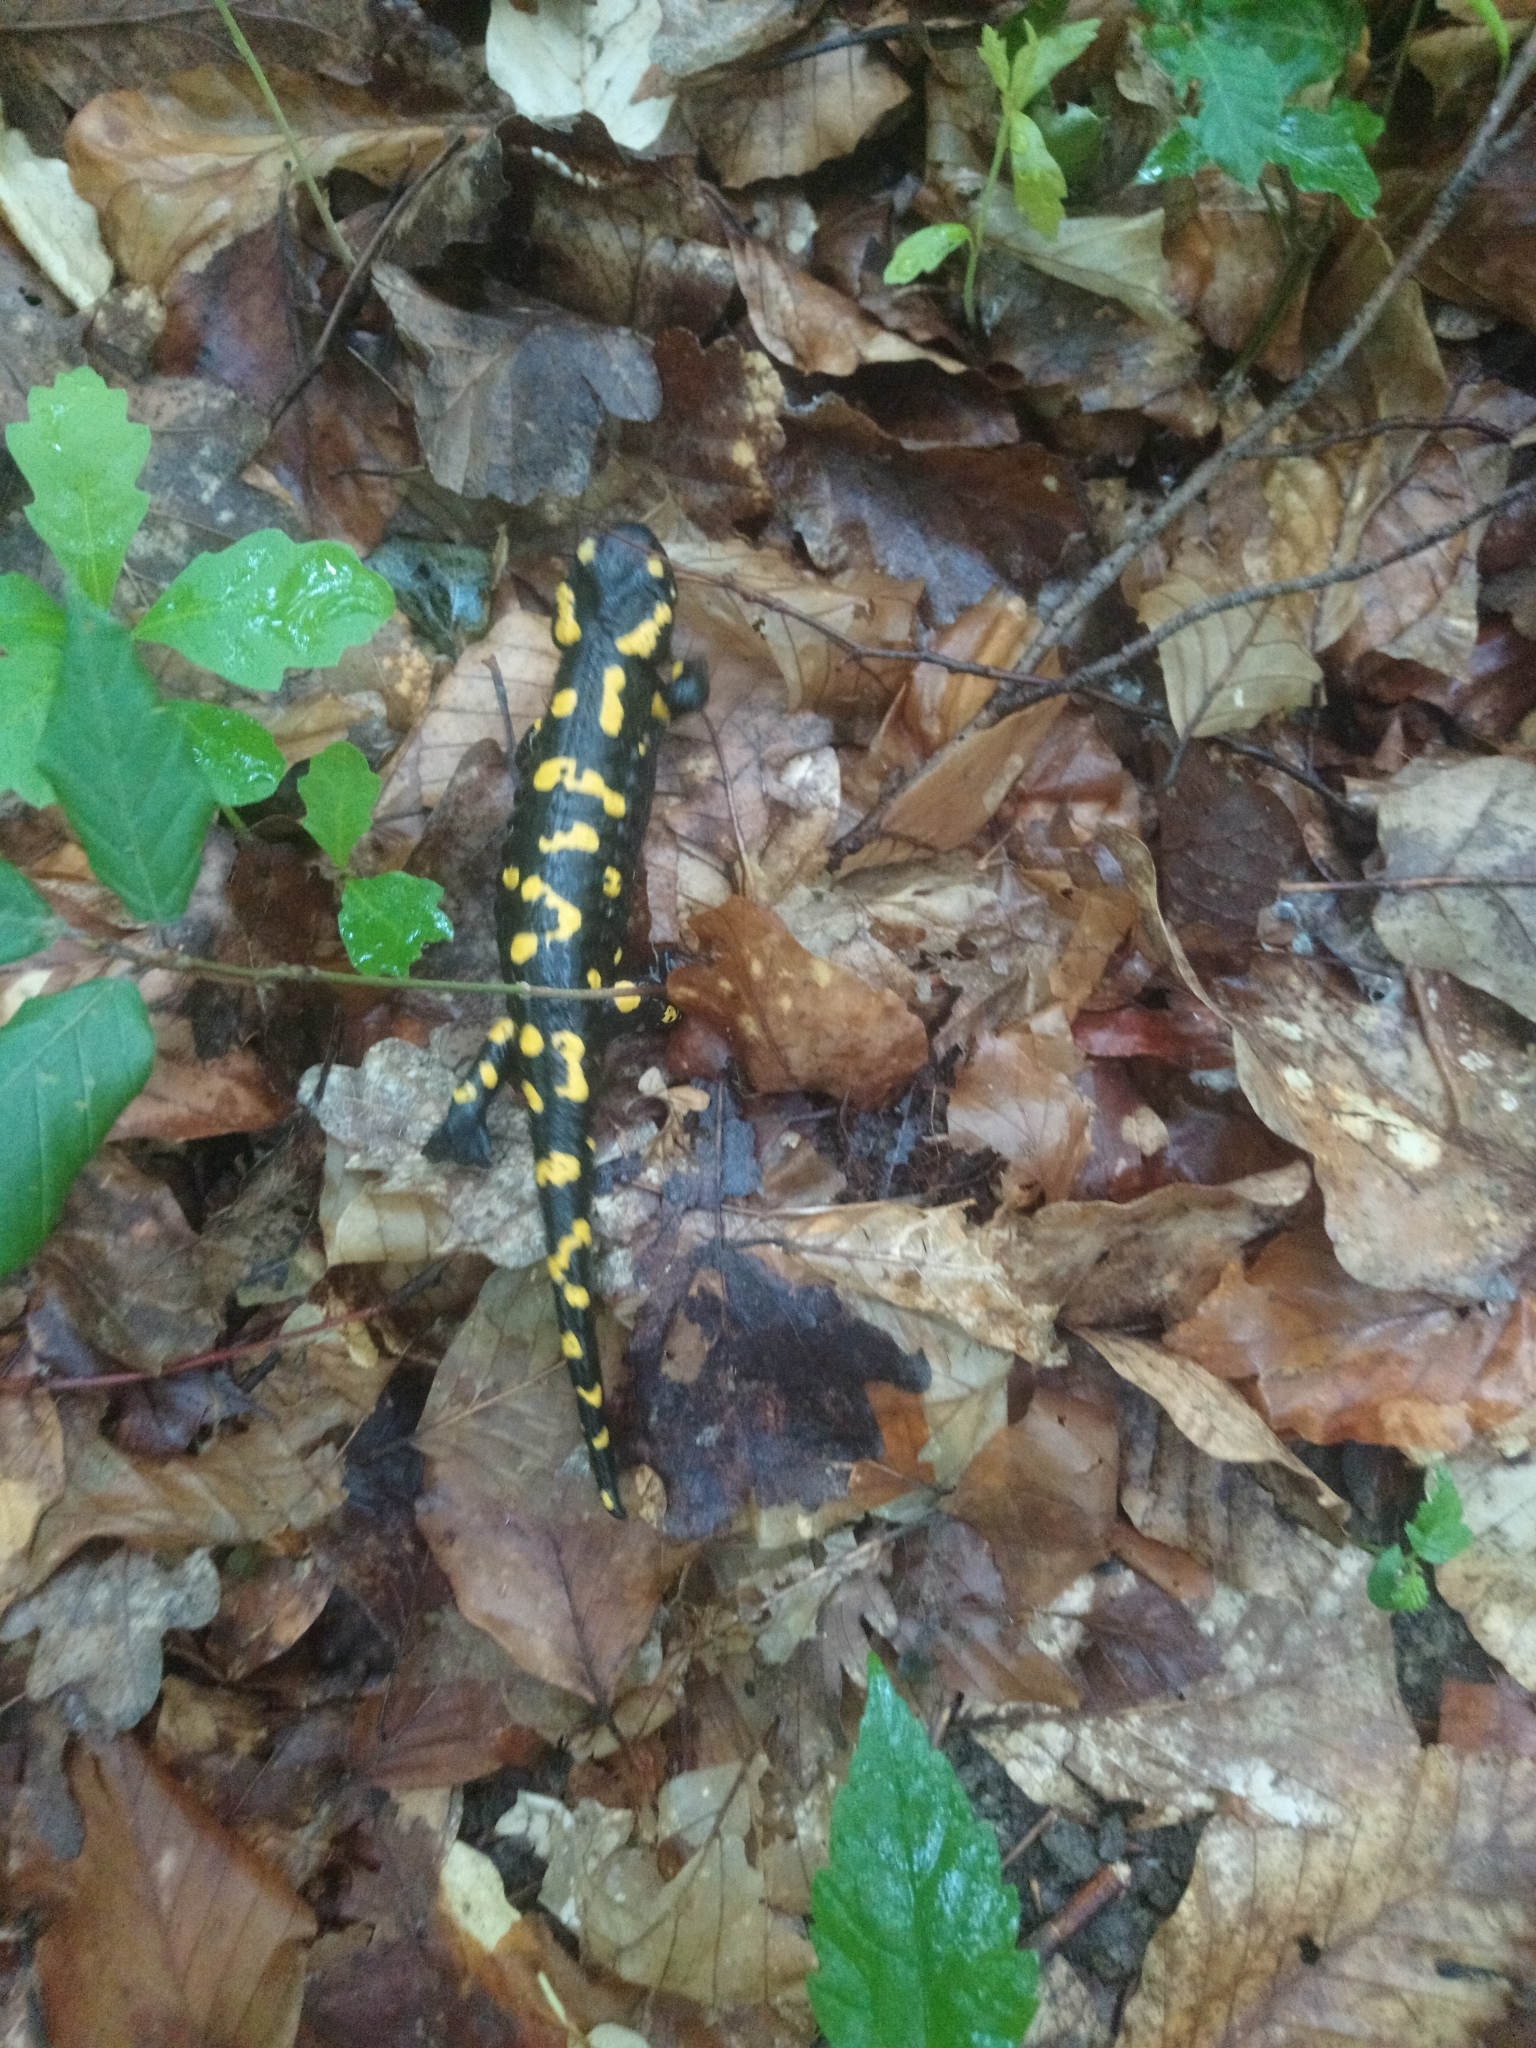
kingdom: Animalia
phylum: Chordata
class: Amphibia
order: Caudata
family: Salamandridae
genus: Salamandra
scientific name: Salamandra salamandra
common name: Fire salamander
